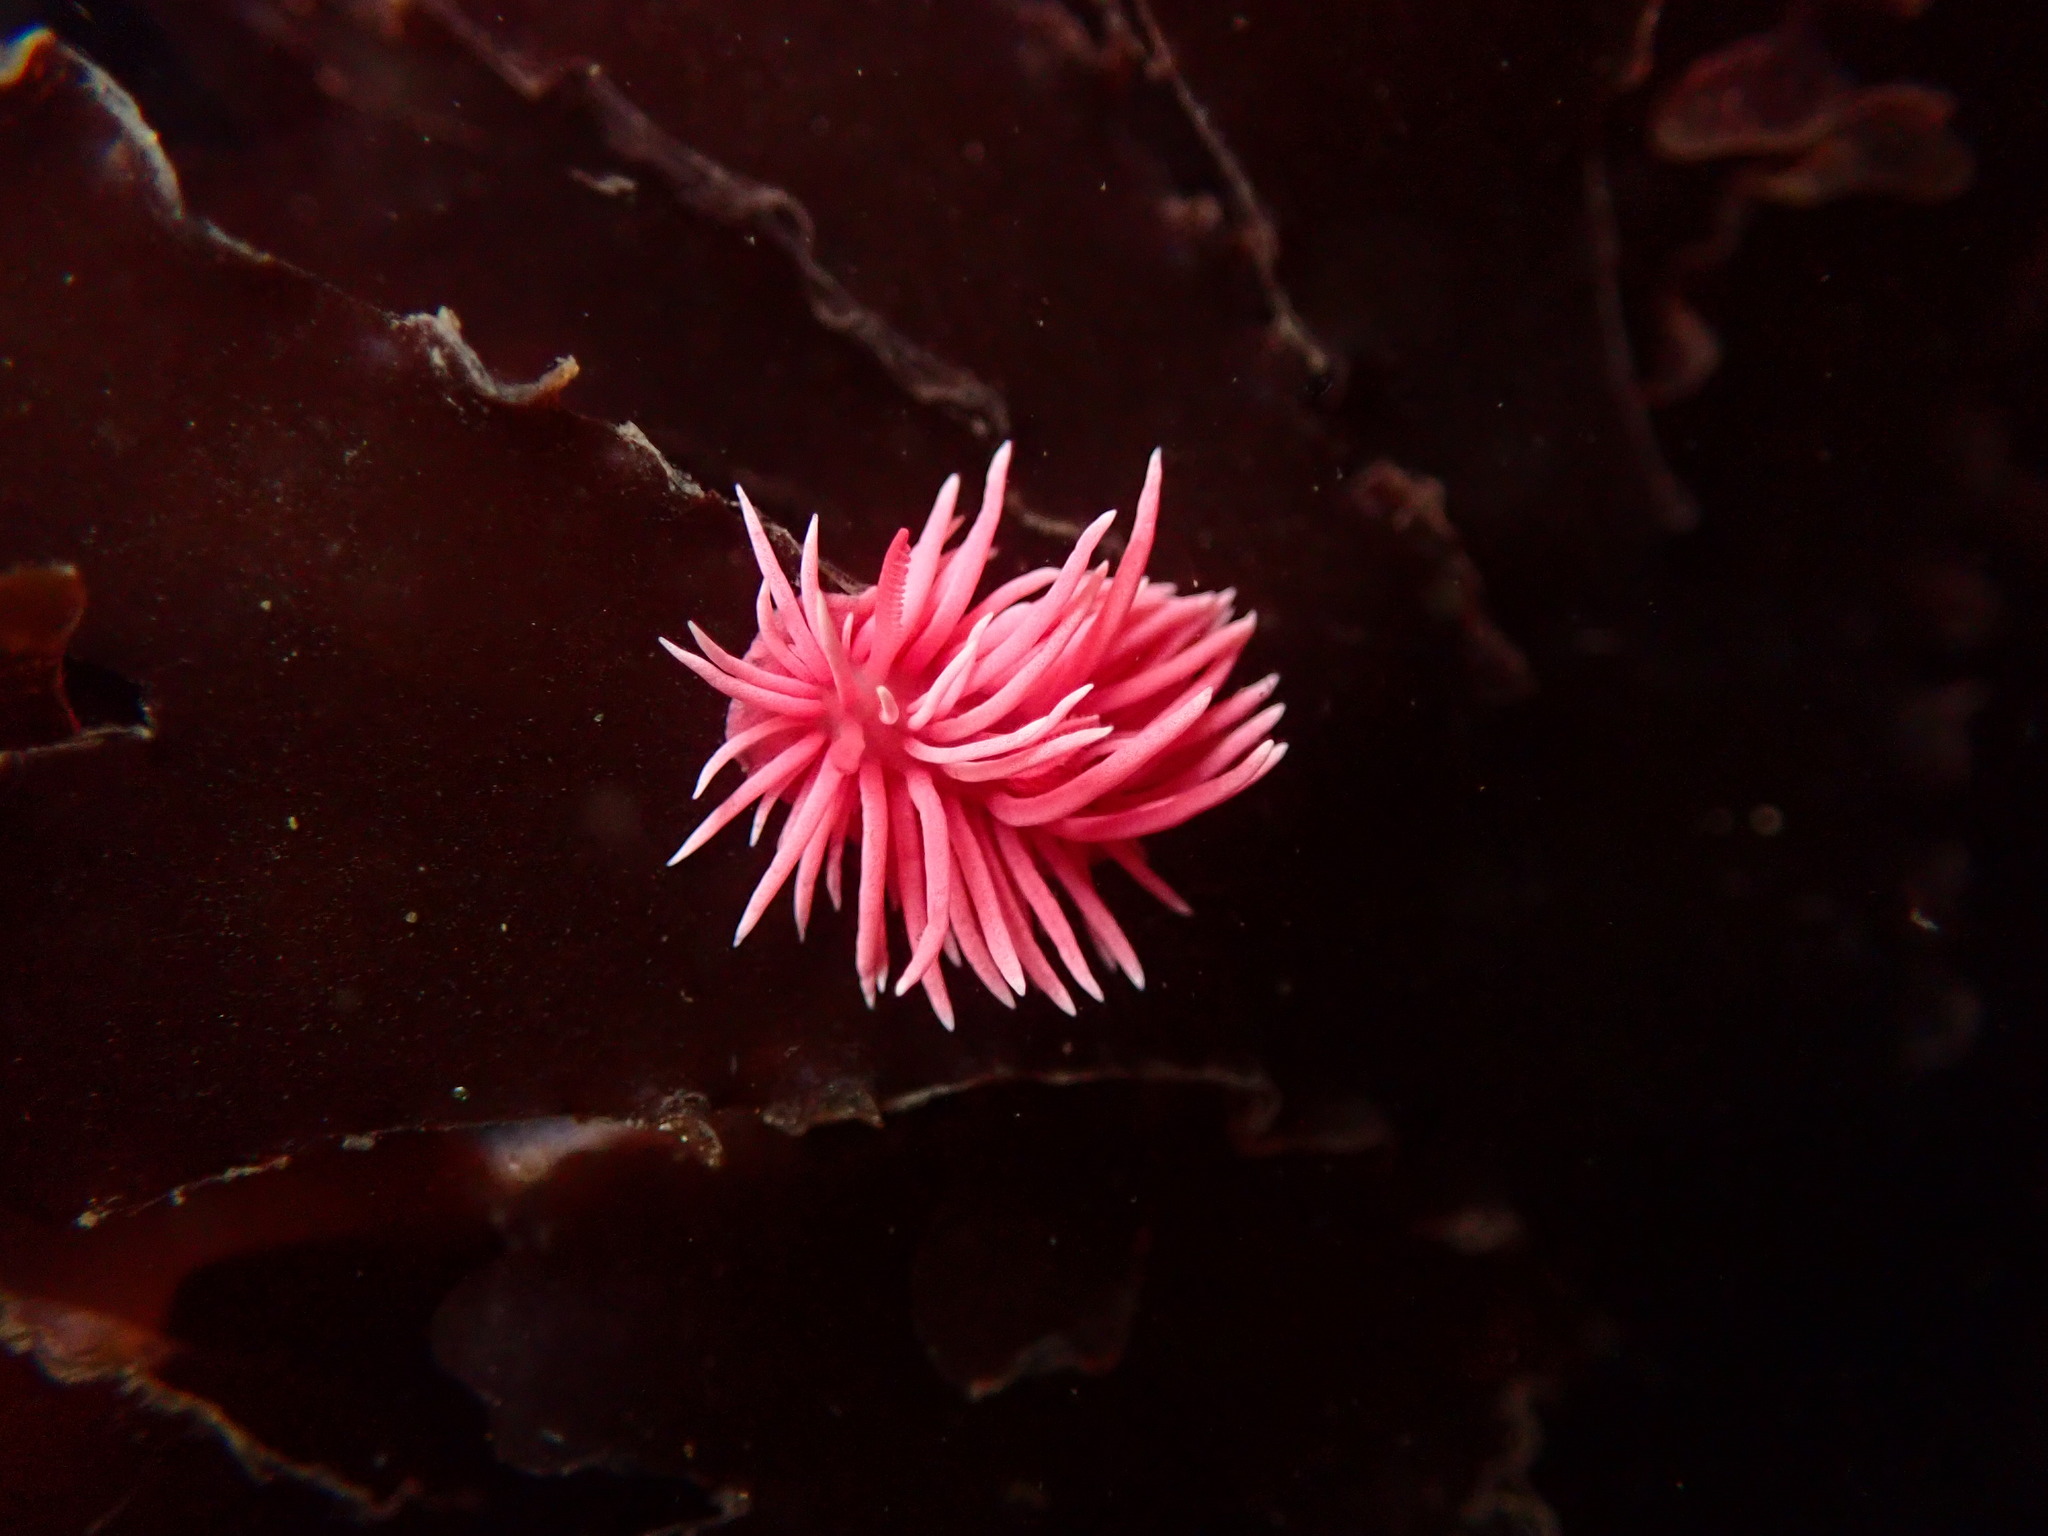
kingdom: Animalia
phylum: Mollusca
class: Gastropoda
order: Nudibranchia
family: Goniodorididae
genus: Okenia
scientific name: Okenia
